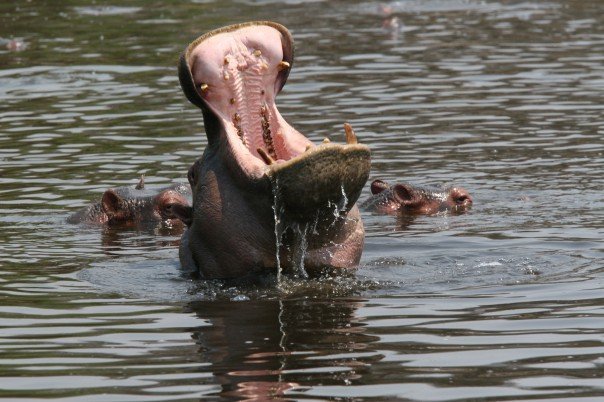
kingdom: Animalia
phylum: Chordata
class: Mammalia
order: Artiodactyla
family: Hippopotamidae
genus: Hippopotamus
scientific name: Hippopotamus amphibius
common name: Common hippopotamus
